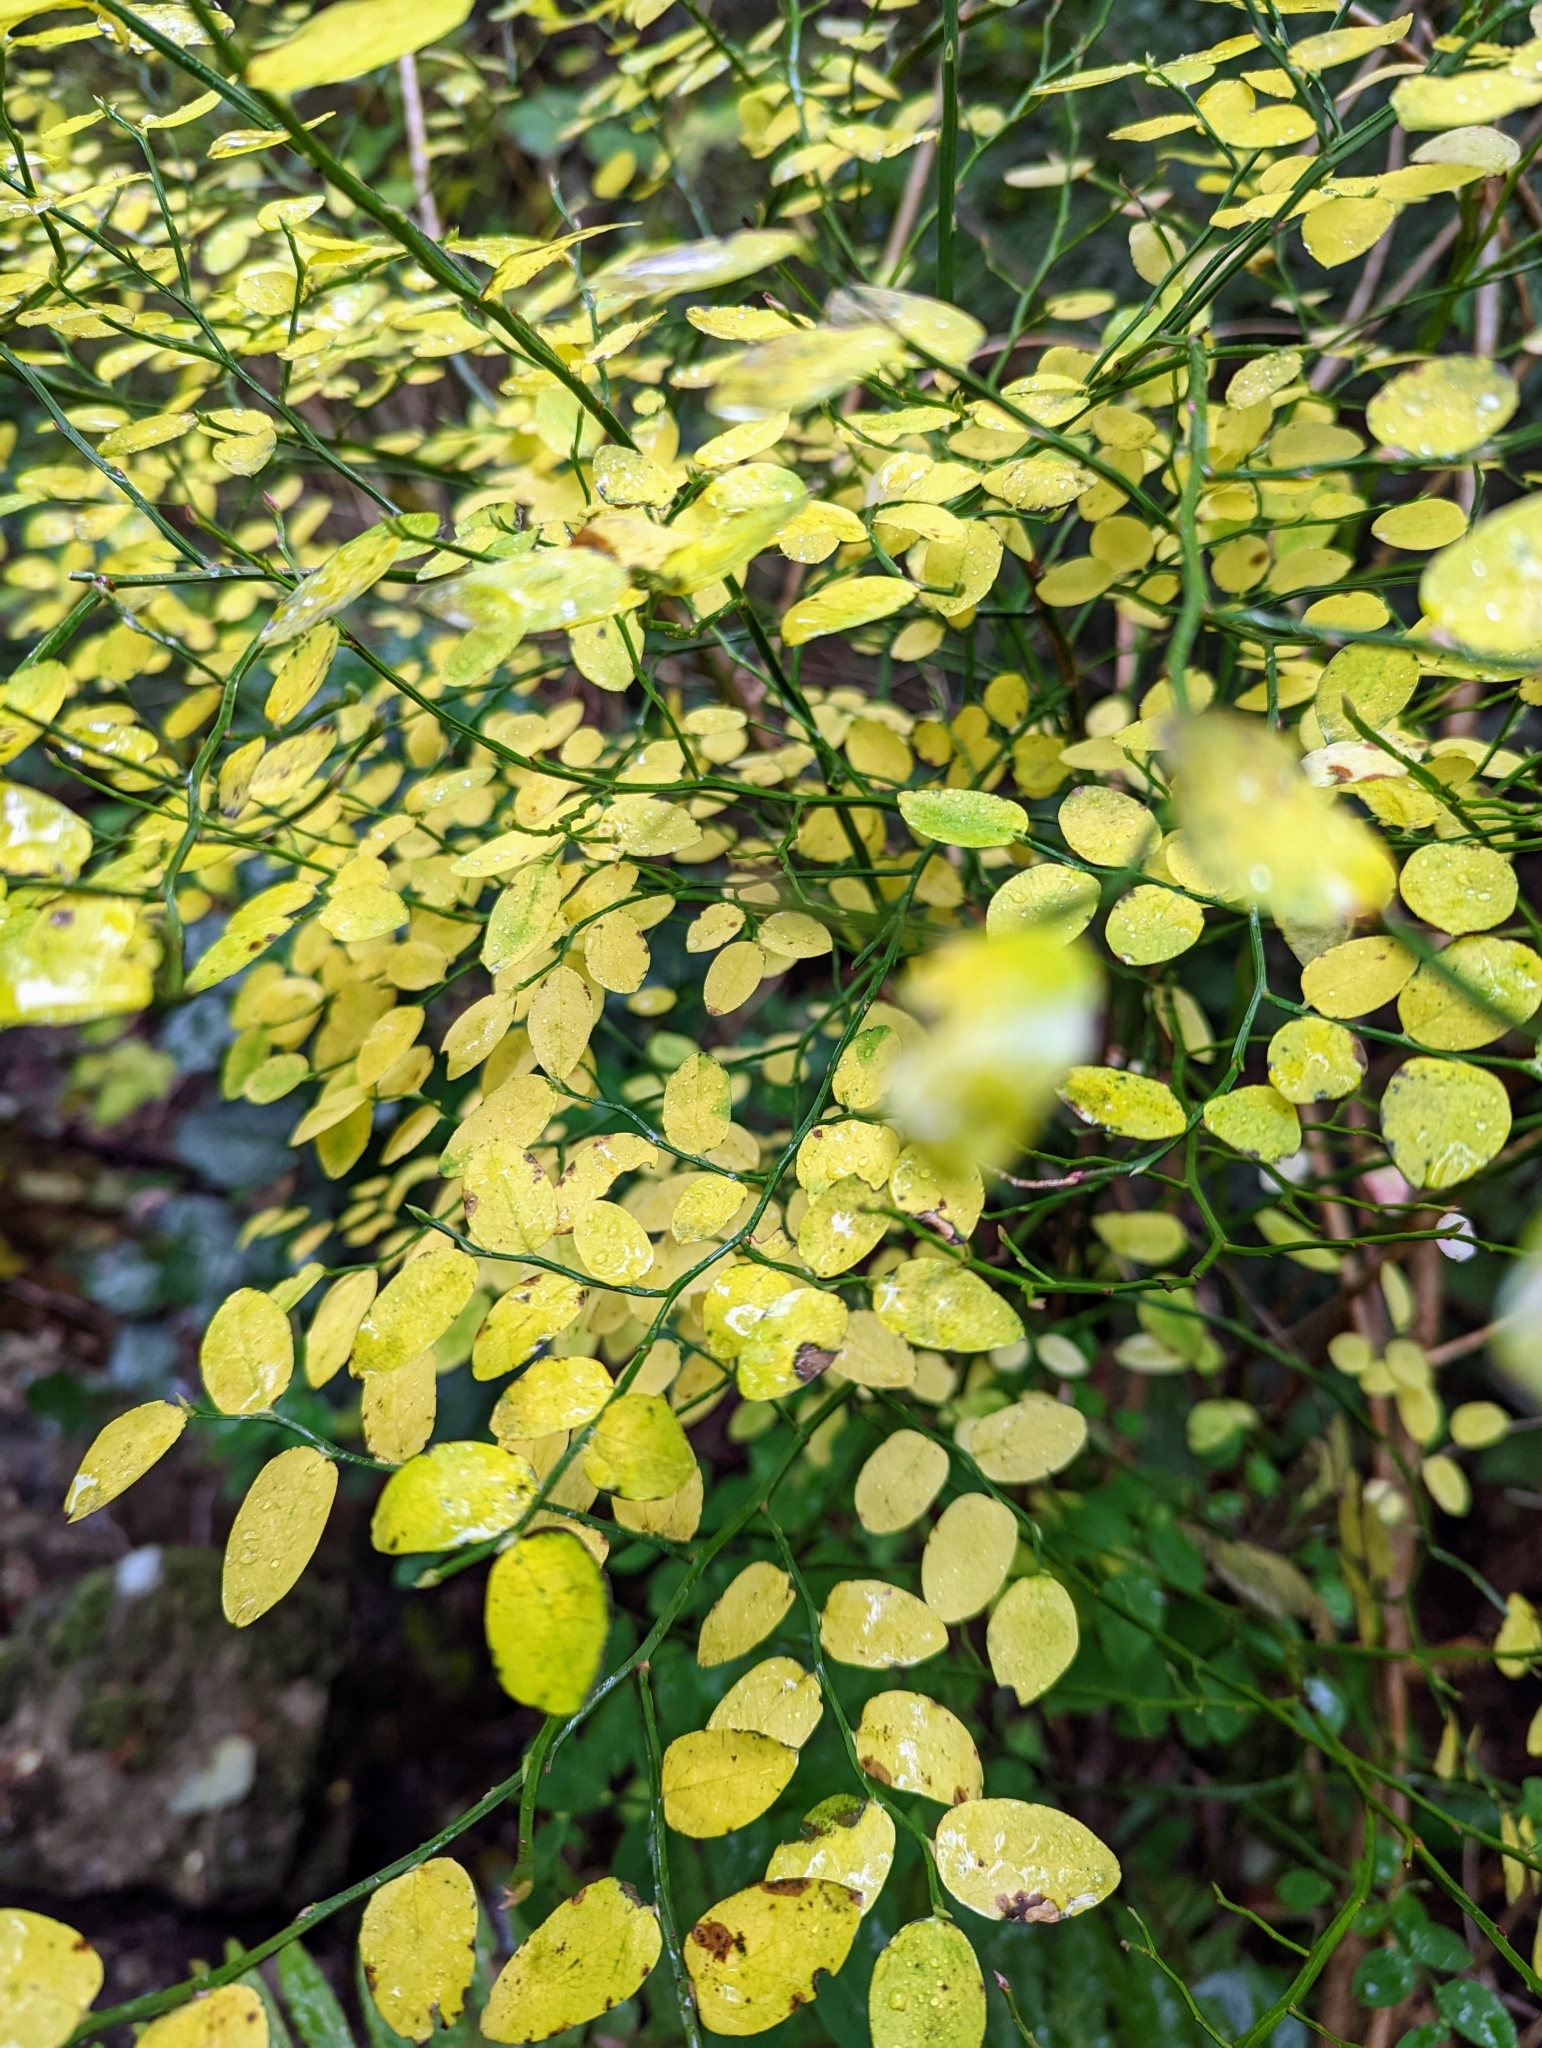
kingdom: Plantae
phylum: Tracheophyta
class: Magnoliopsida
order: Ericales
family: Ericaceae
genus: Vaccinium
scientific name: Vaccinium parvifolium
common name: Red-huckleberry
